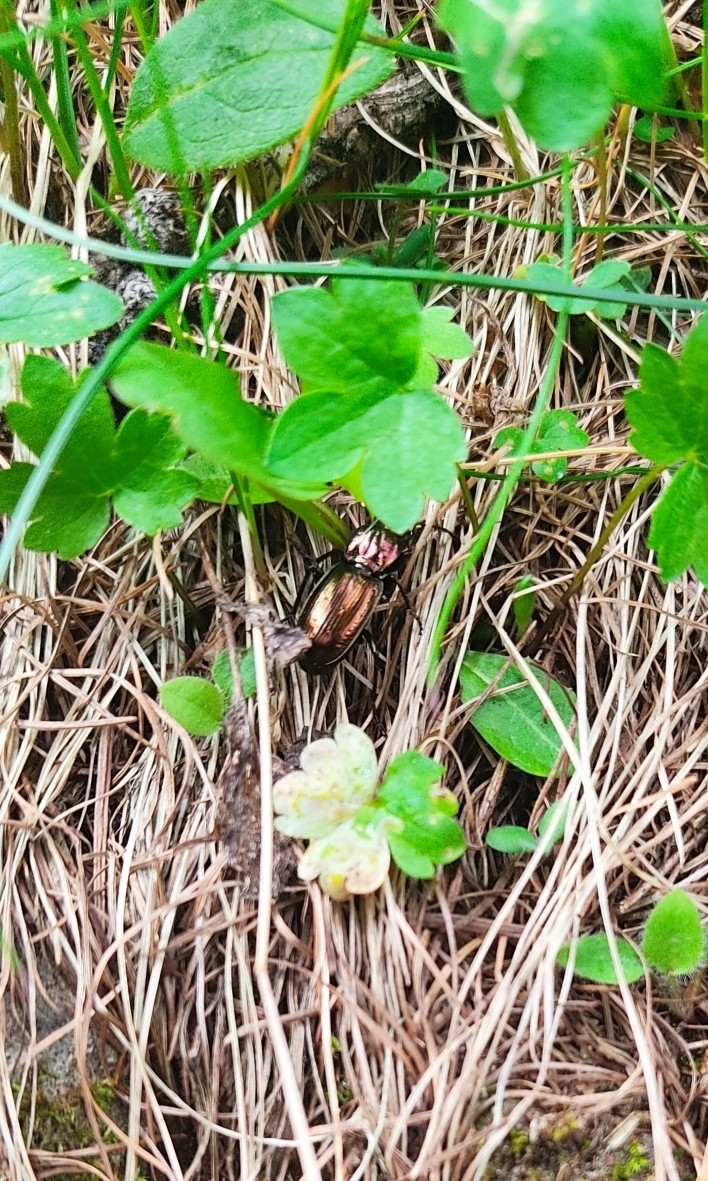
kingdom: Animalia
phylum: Arthropoda
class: Insecta
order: Coleoptera
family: Carabidae
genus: Pterostichus
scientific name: Pterostichus externepunctatus
